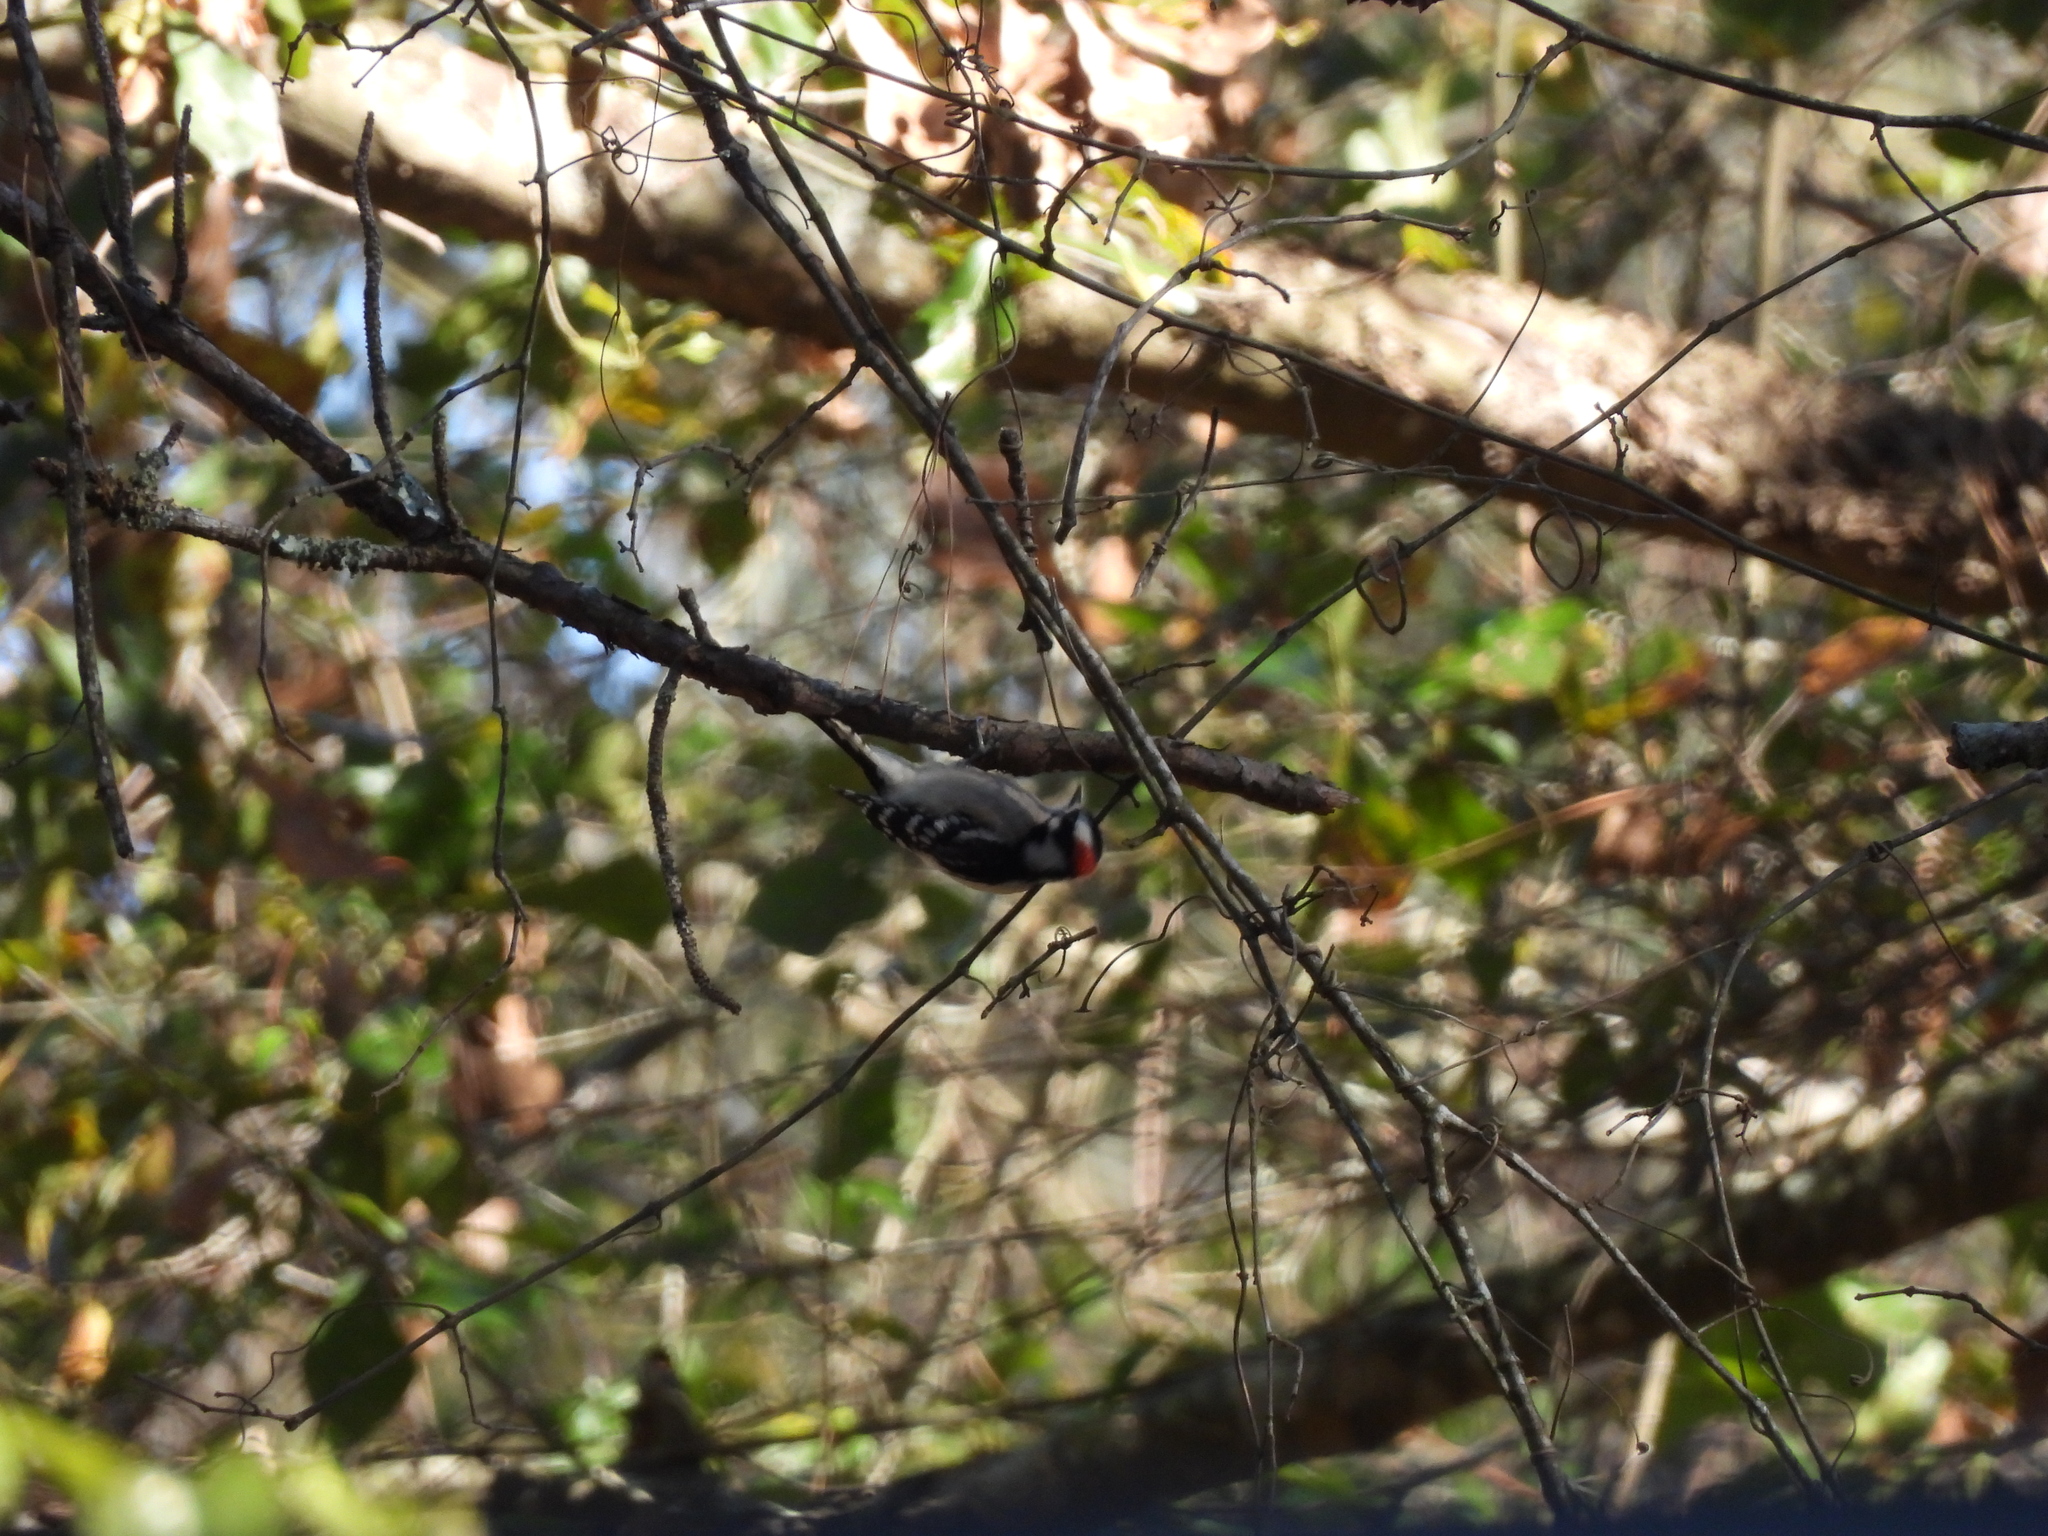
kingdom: Animalia
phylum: Chordata
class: Aves
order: Piciformes
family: Picidae
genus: Dryobates
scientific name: Dryobates pubescens
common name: Downy woodpecker
